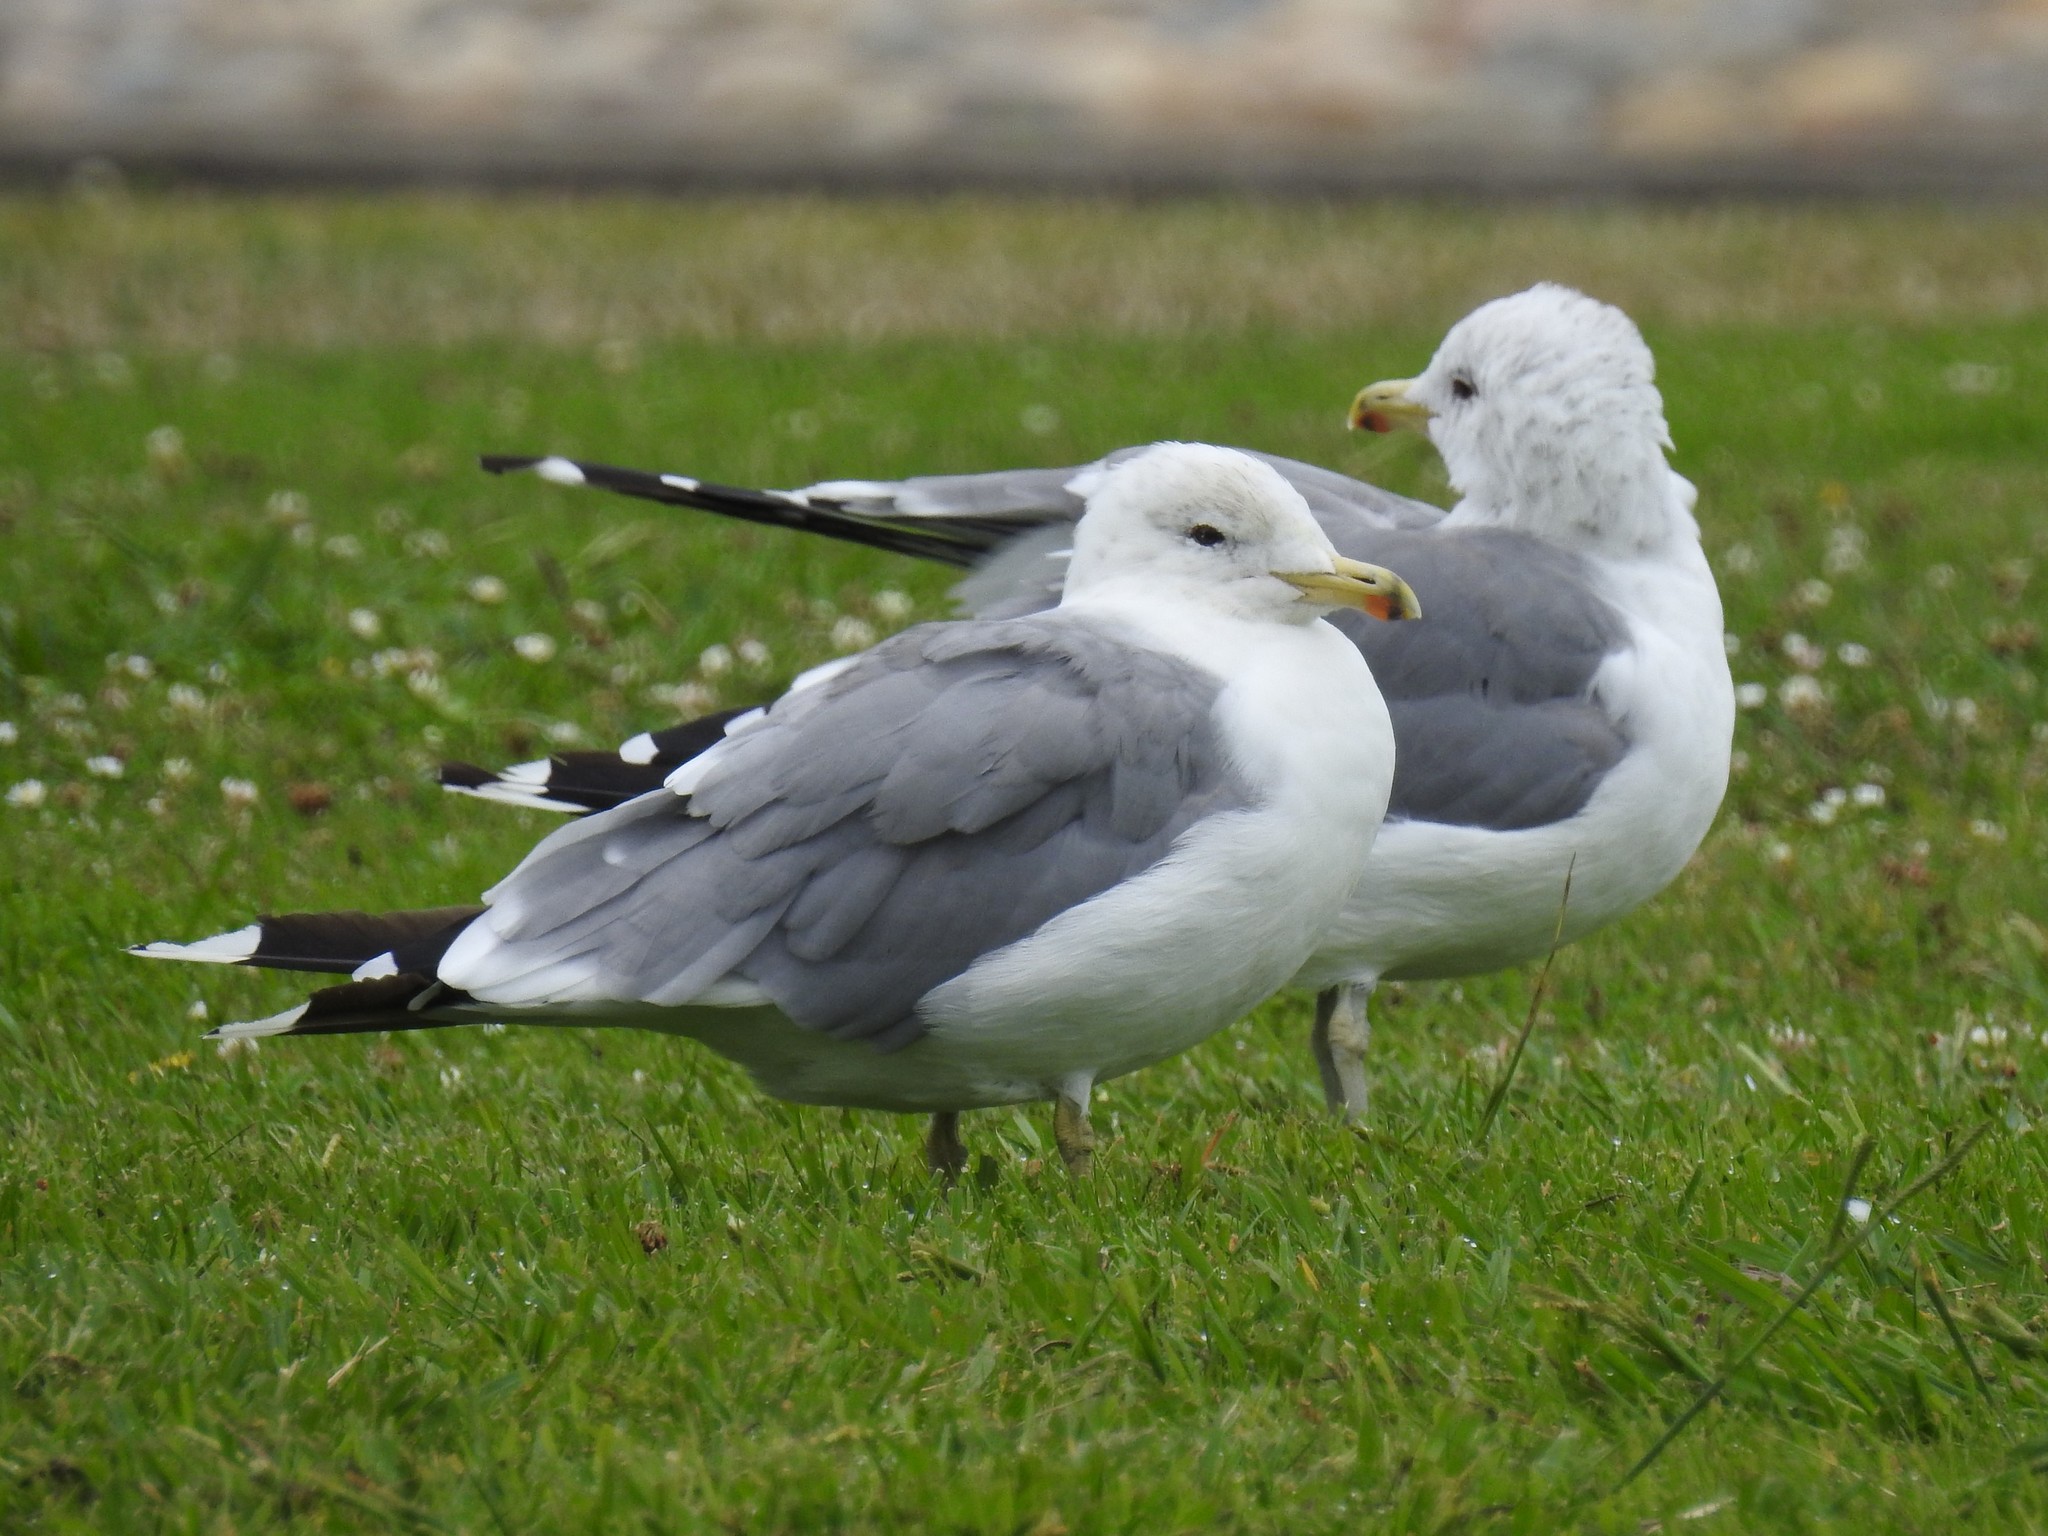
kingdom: Animalia
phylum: Chordata
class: Aves
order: Charadriiformes
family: Laridae
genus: Larus
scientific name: Larus californicus
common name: California gull
